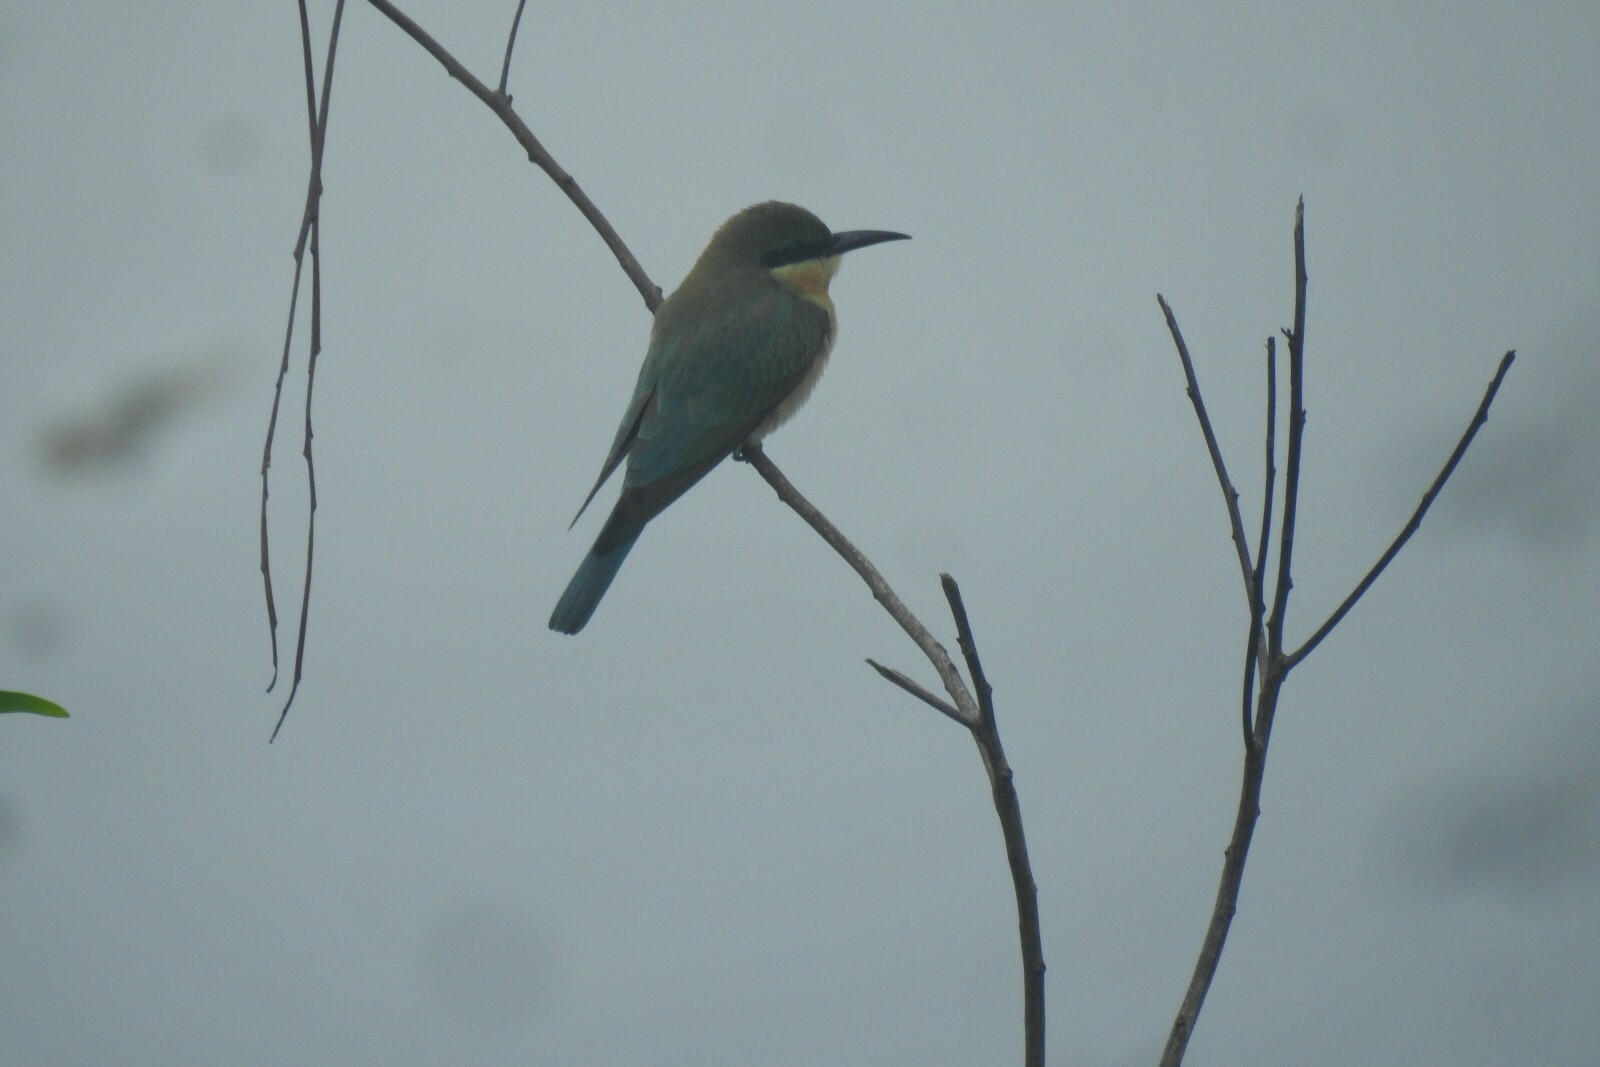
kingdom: Animalia
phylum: Chordata
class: Aves
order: Coraciiformes
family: Meropidae
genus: Merops
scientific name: Merops philippinus
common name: Blue-tailed bee-eater
